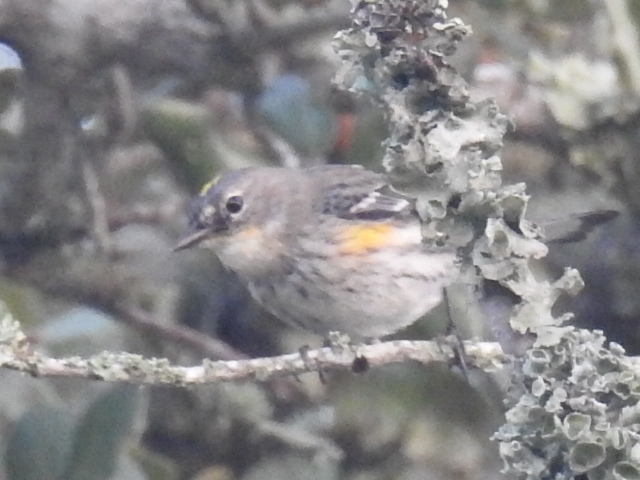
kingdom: Animalia
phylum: Chordata
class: Aves
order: Passeriformes
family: Parulidae
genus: Setophaga
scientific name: Setophaga coronata
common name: Myrtle warbler
